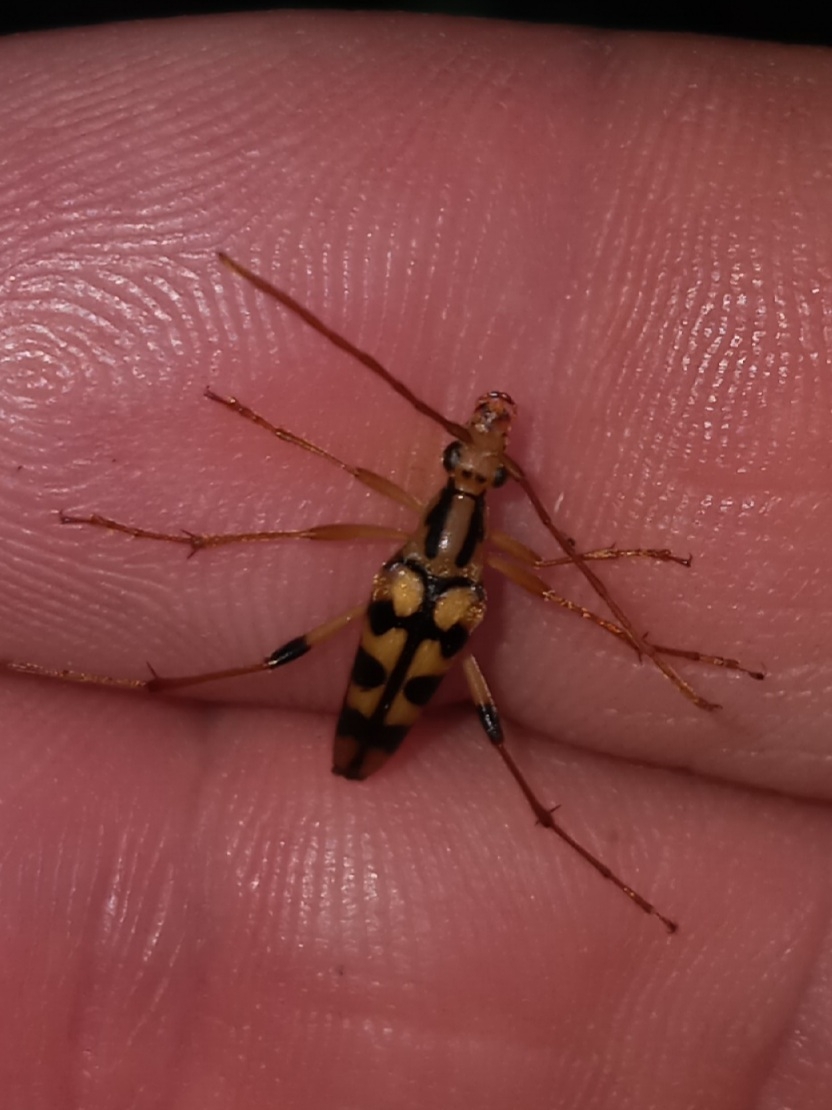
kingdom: Animalia
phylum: Arthropoda
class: Insecta
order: Coleoptera
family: Cerambycidae
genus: Strangalia
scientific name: Strangalia luteicornis
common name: Yellow-horned flower longhorn beetle
